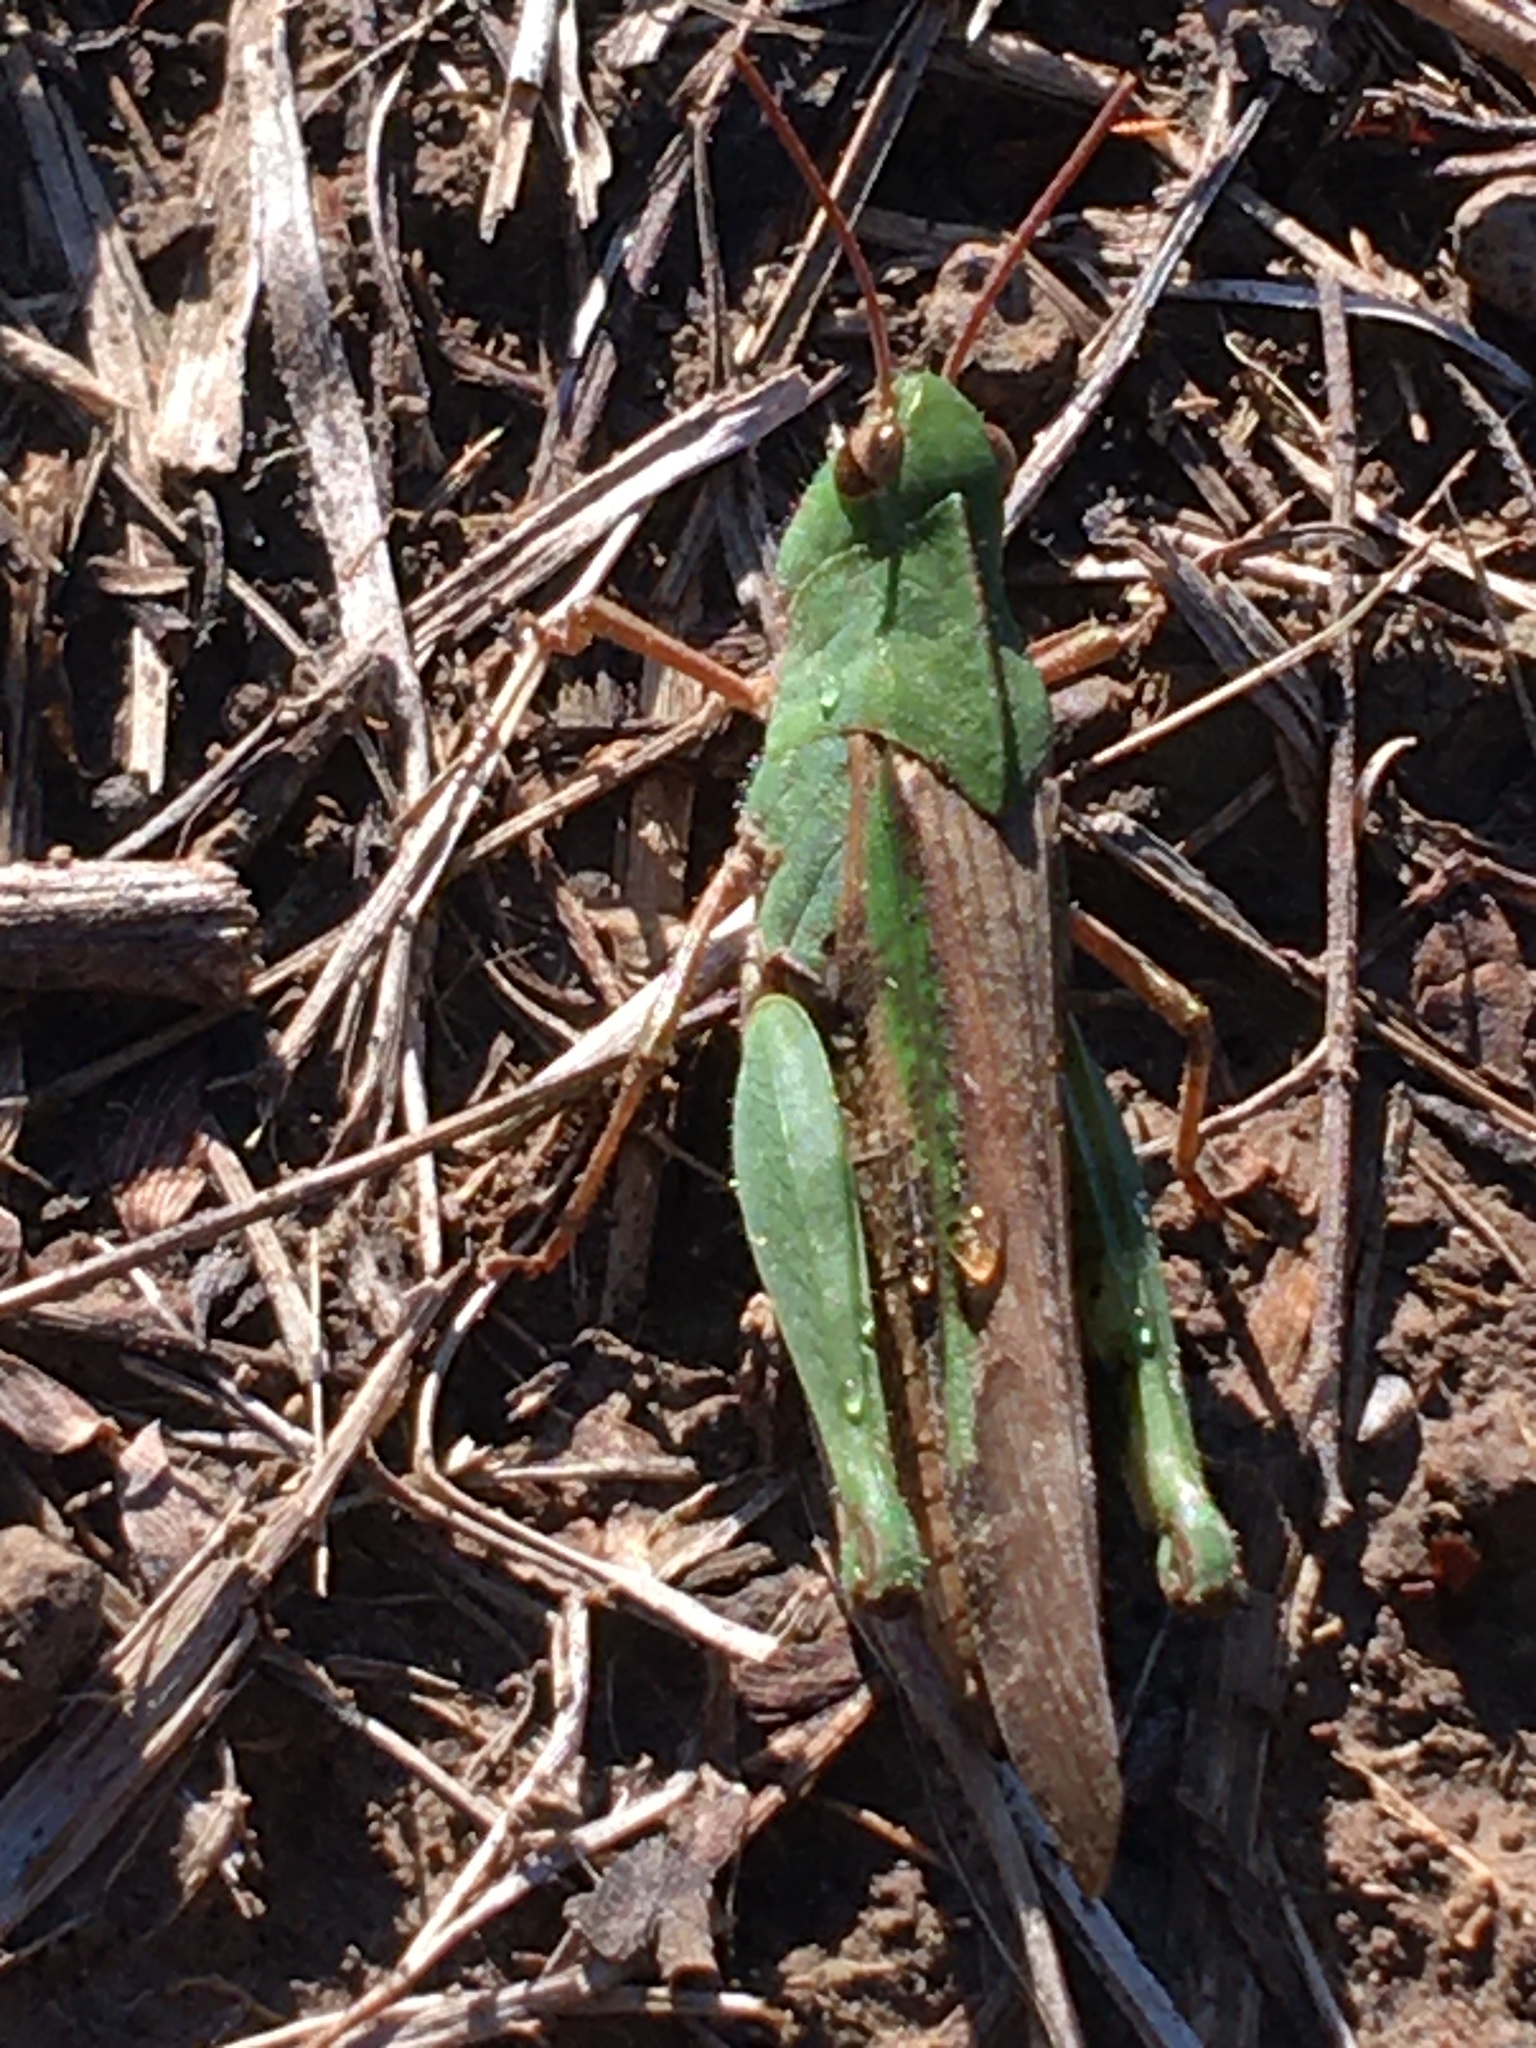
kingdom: Animalia
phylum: Arthropoda
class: Insecta
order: Orthoptera
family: Acrididae
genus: Chortophaga
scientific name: Chortophaga viridifasciata
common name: Green-striped grasshopper
